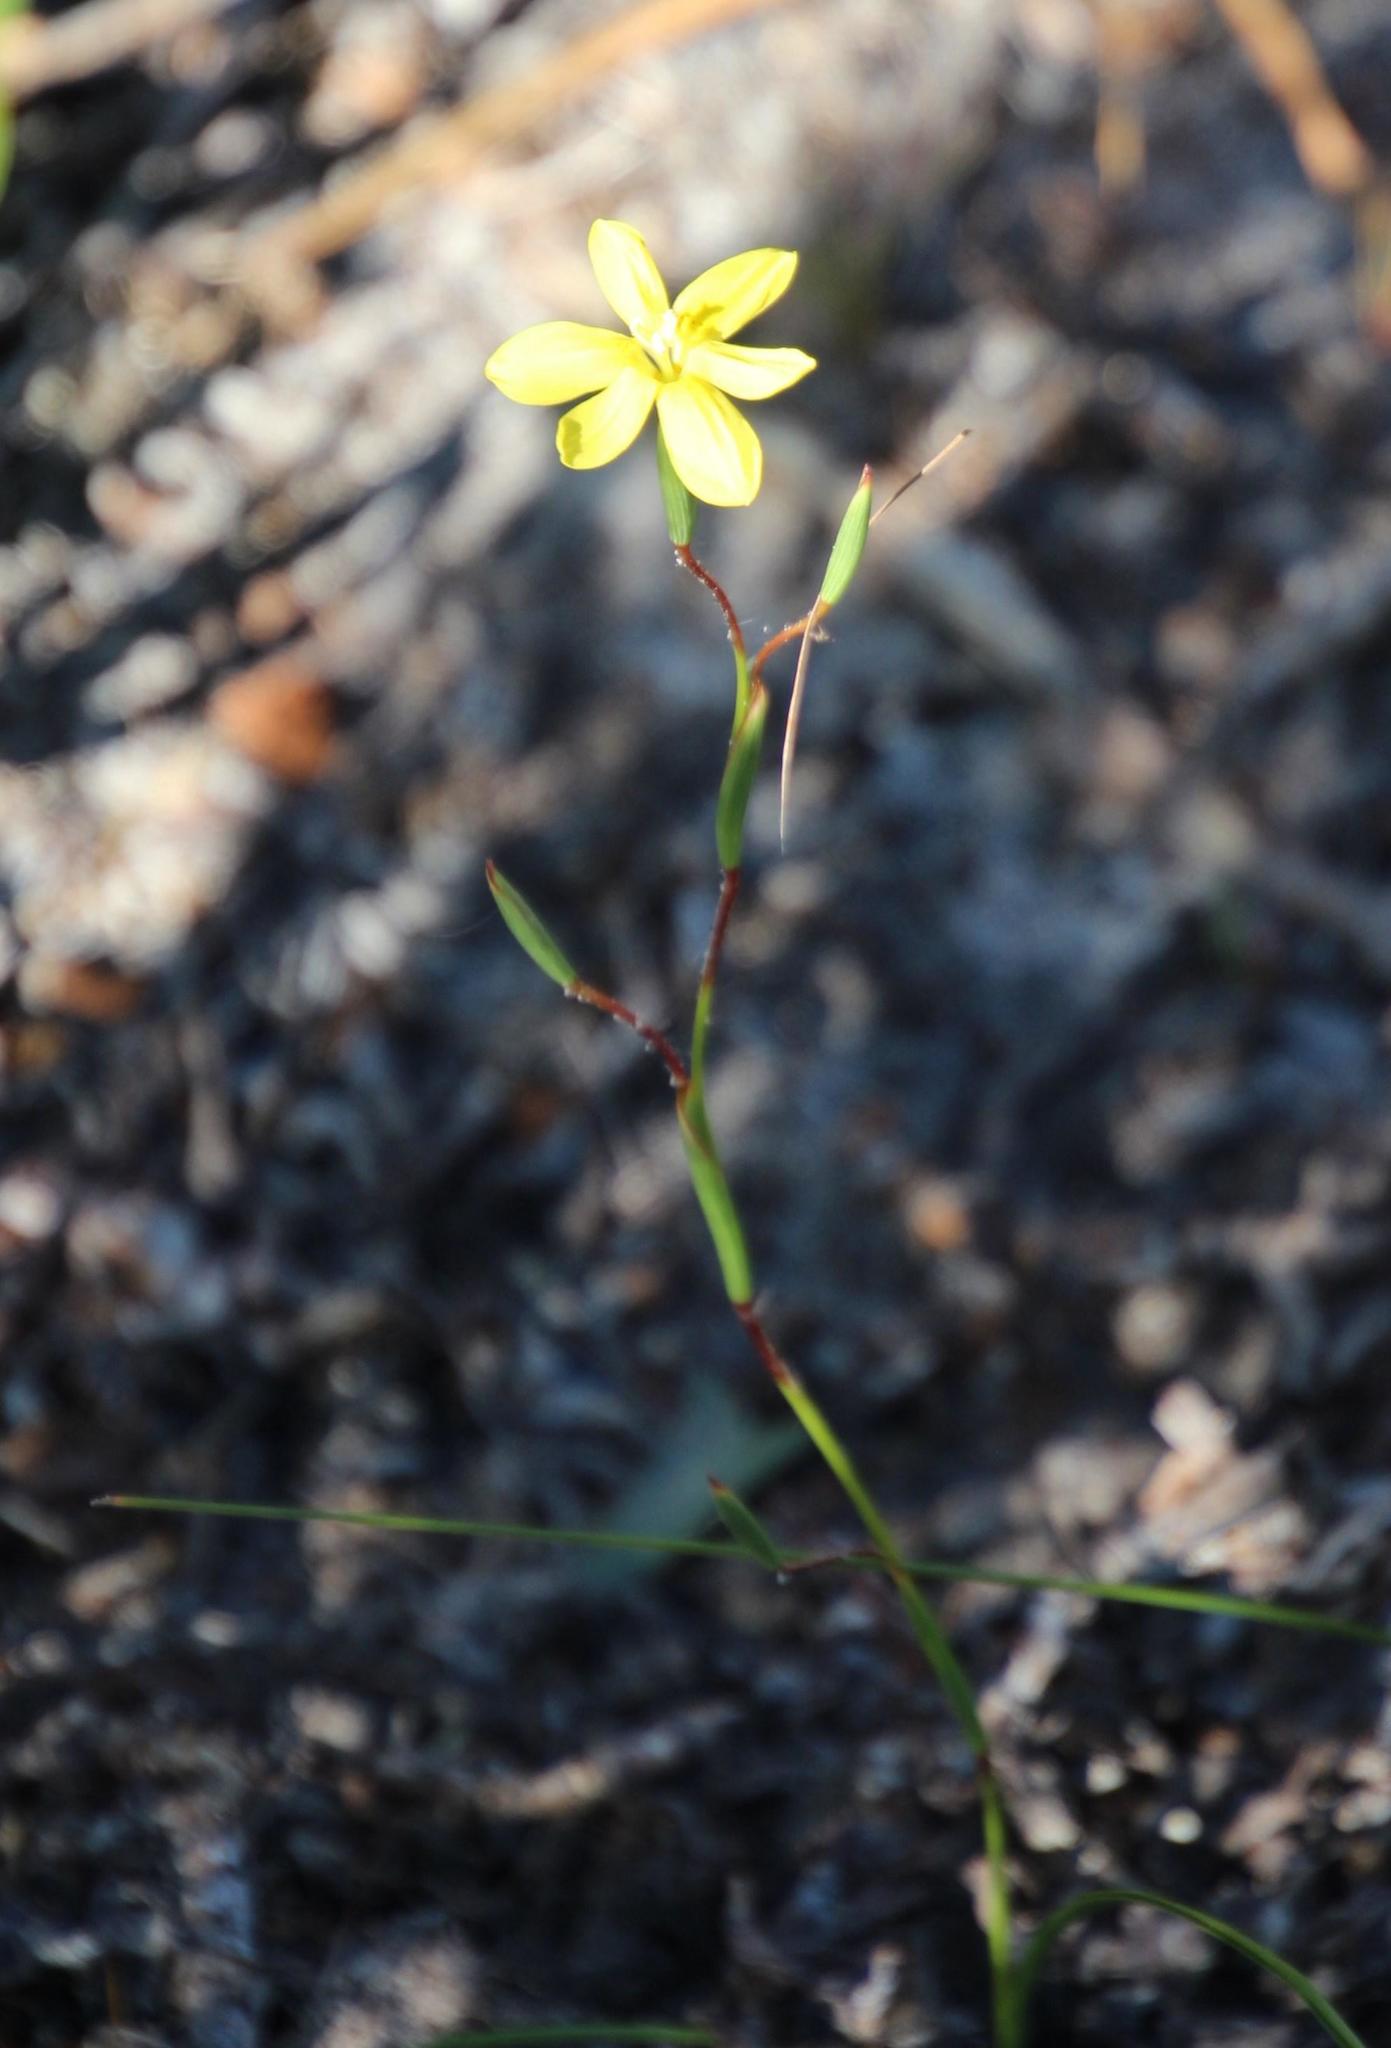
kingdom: Plantae
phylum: Tracheophyta
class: Liliopsida
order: Asparagales
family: Iridaceae
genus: Moraea
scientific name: Moraea elsiae
